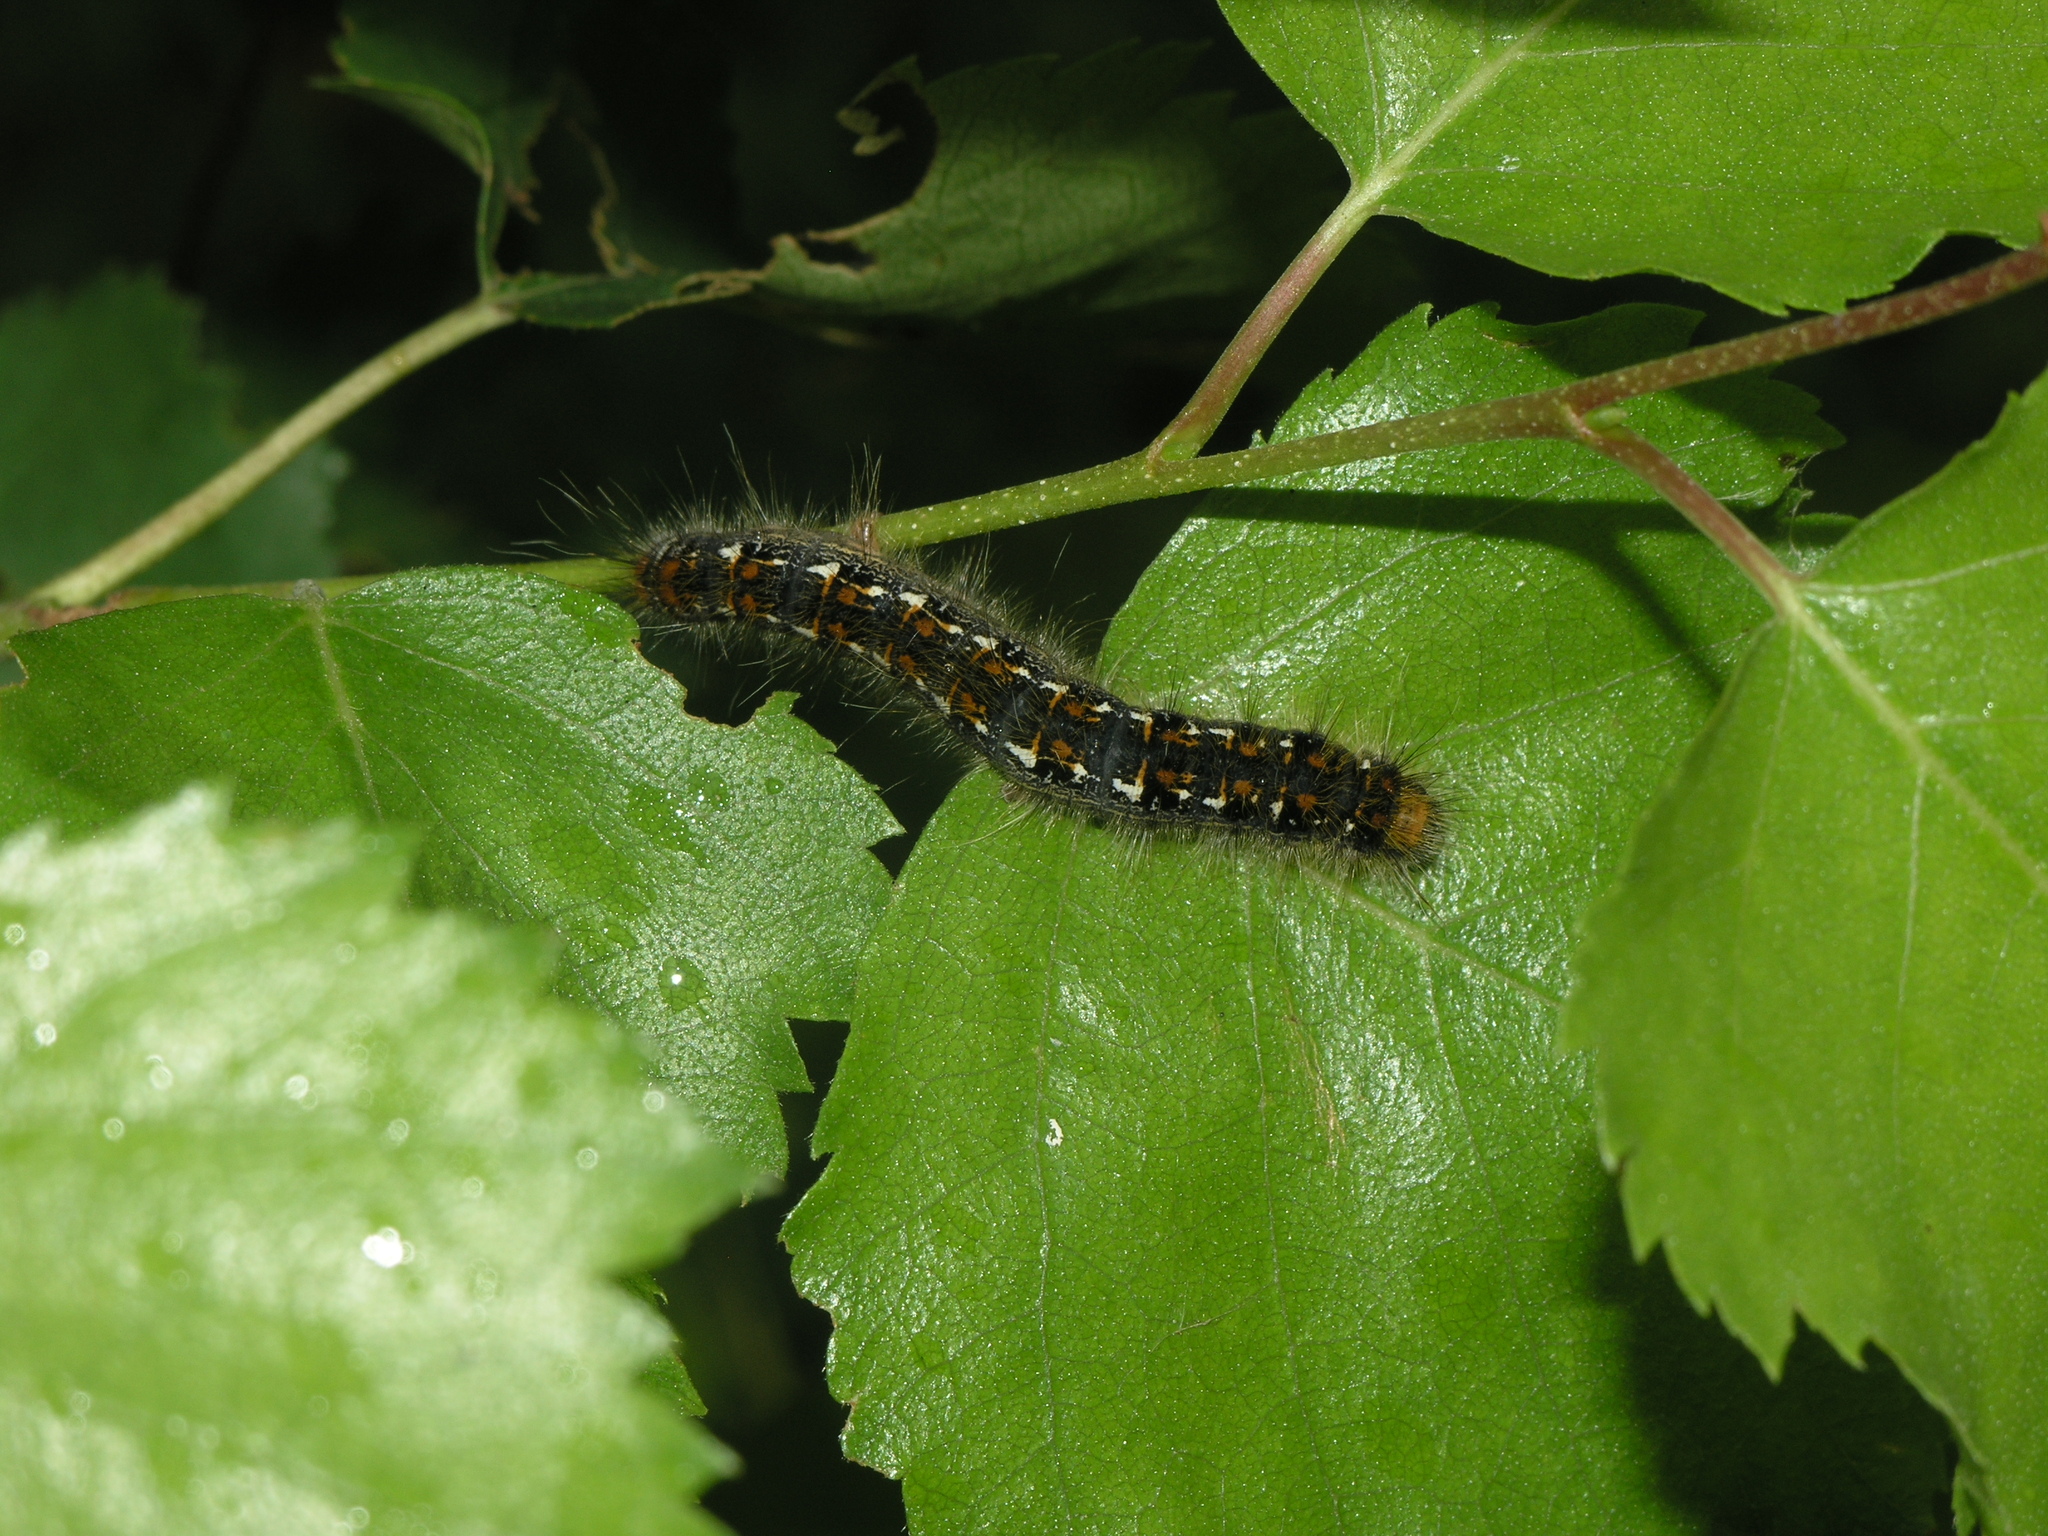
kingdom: Animalia
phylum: Arthropoda
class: Insecta
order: Lepidoptera
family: Lasiocampidae
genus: Trichiura
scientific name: Trichiura crataegi
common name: Pale eggar
